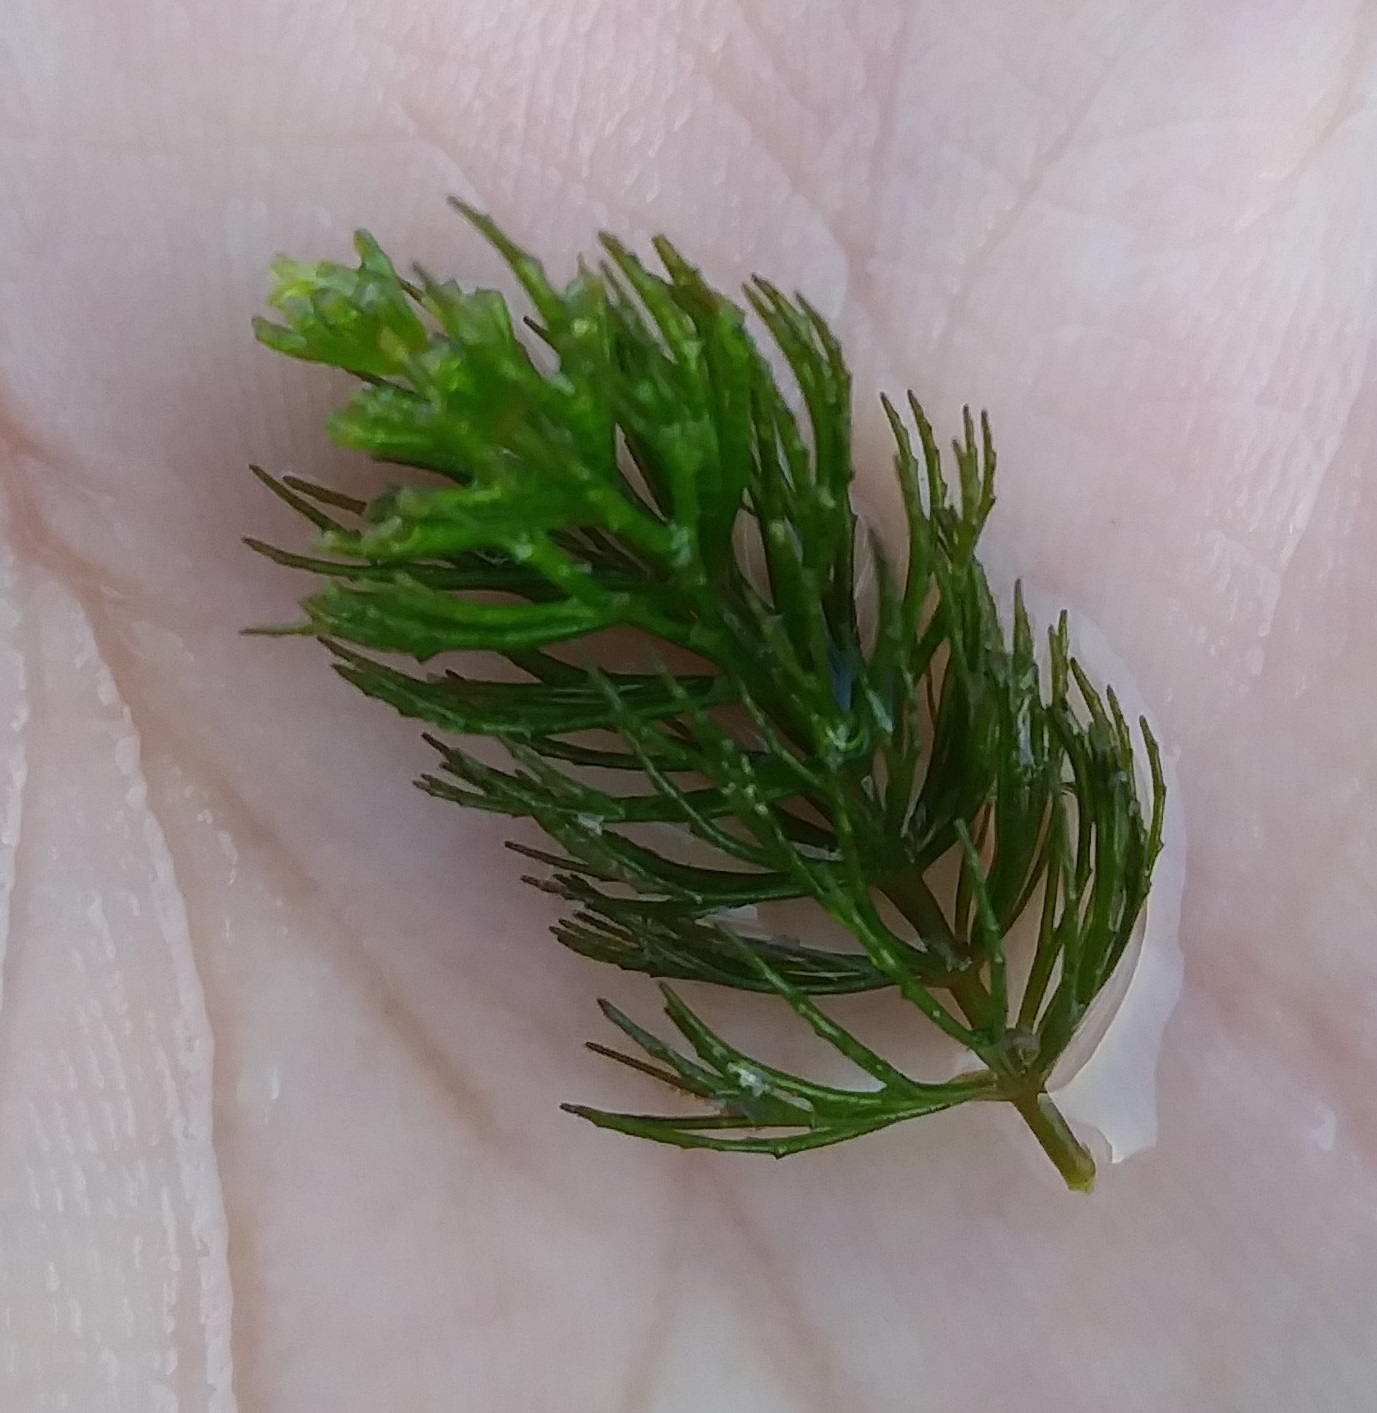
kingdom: Plantae
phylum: Tracheophyta
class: Magnoliopsida
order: Ceratophyllales
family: Ceratophyllaceae
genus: Ceratophyllum
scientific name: Ceratophyllum demersum
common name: Rigid hornwort
